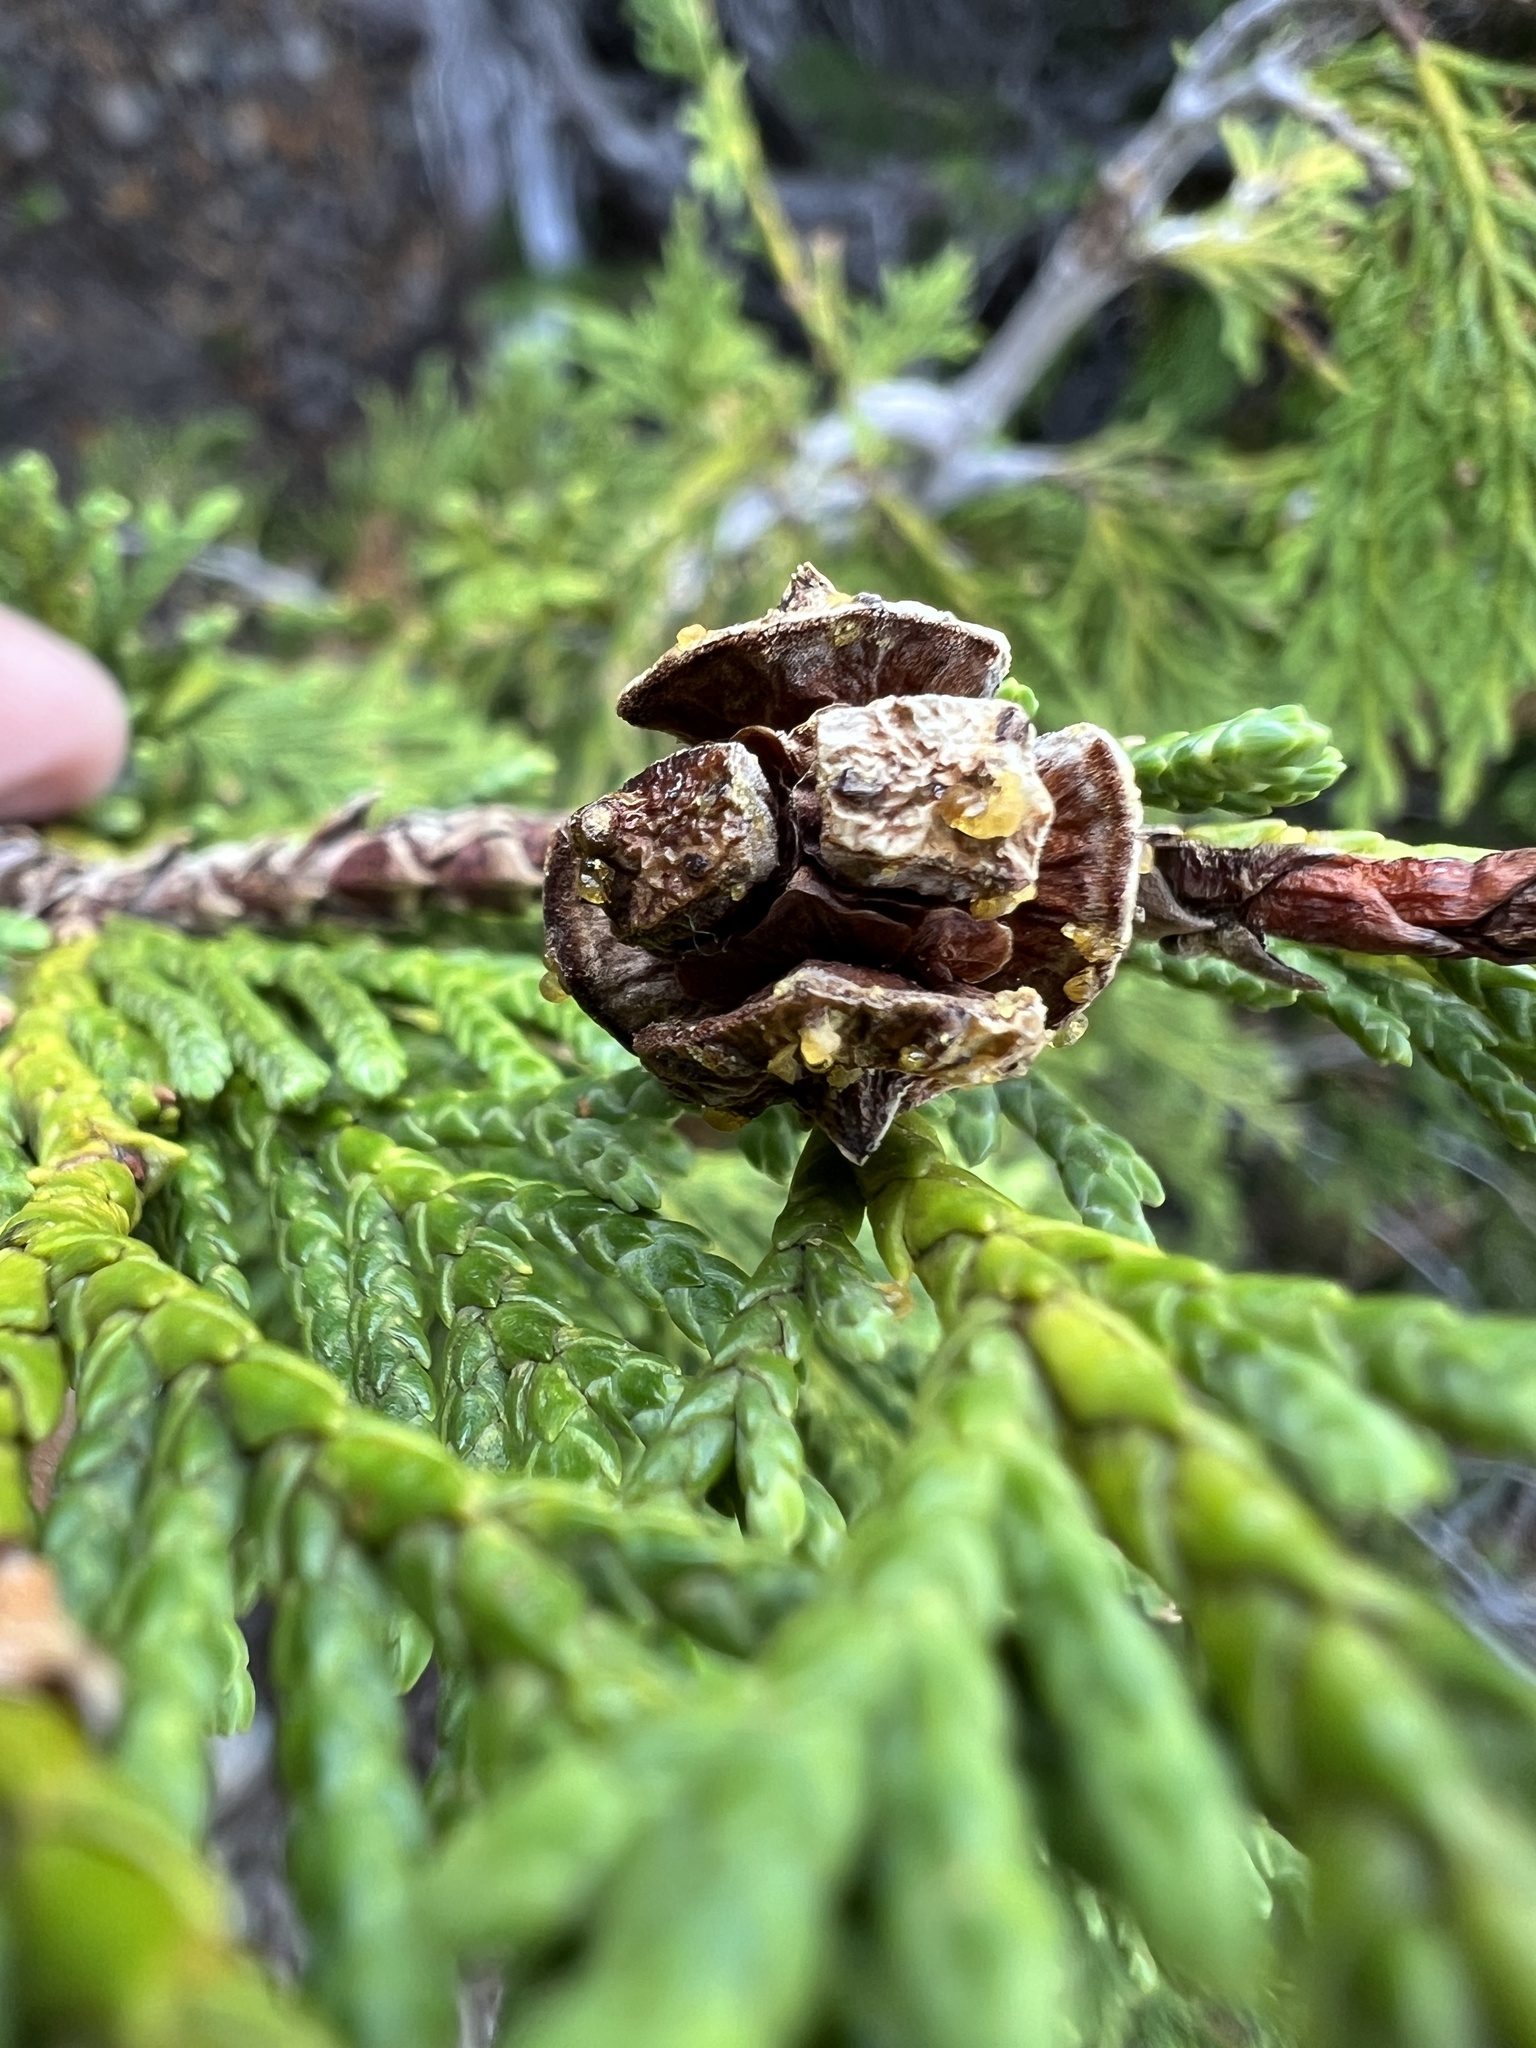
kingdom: Plantae
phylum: Tracheophyta
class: Pinopsida
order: Pinales
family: Cupressaceae
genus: Xanthocyparis
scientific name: Xanthocyparis nootkatensis
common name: Nootka cypress
